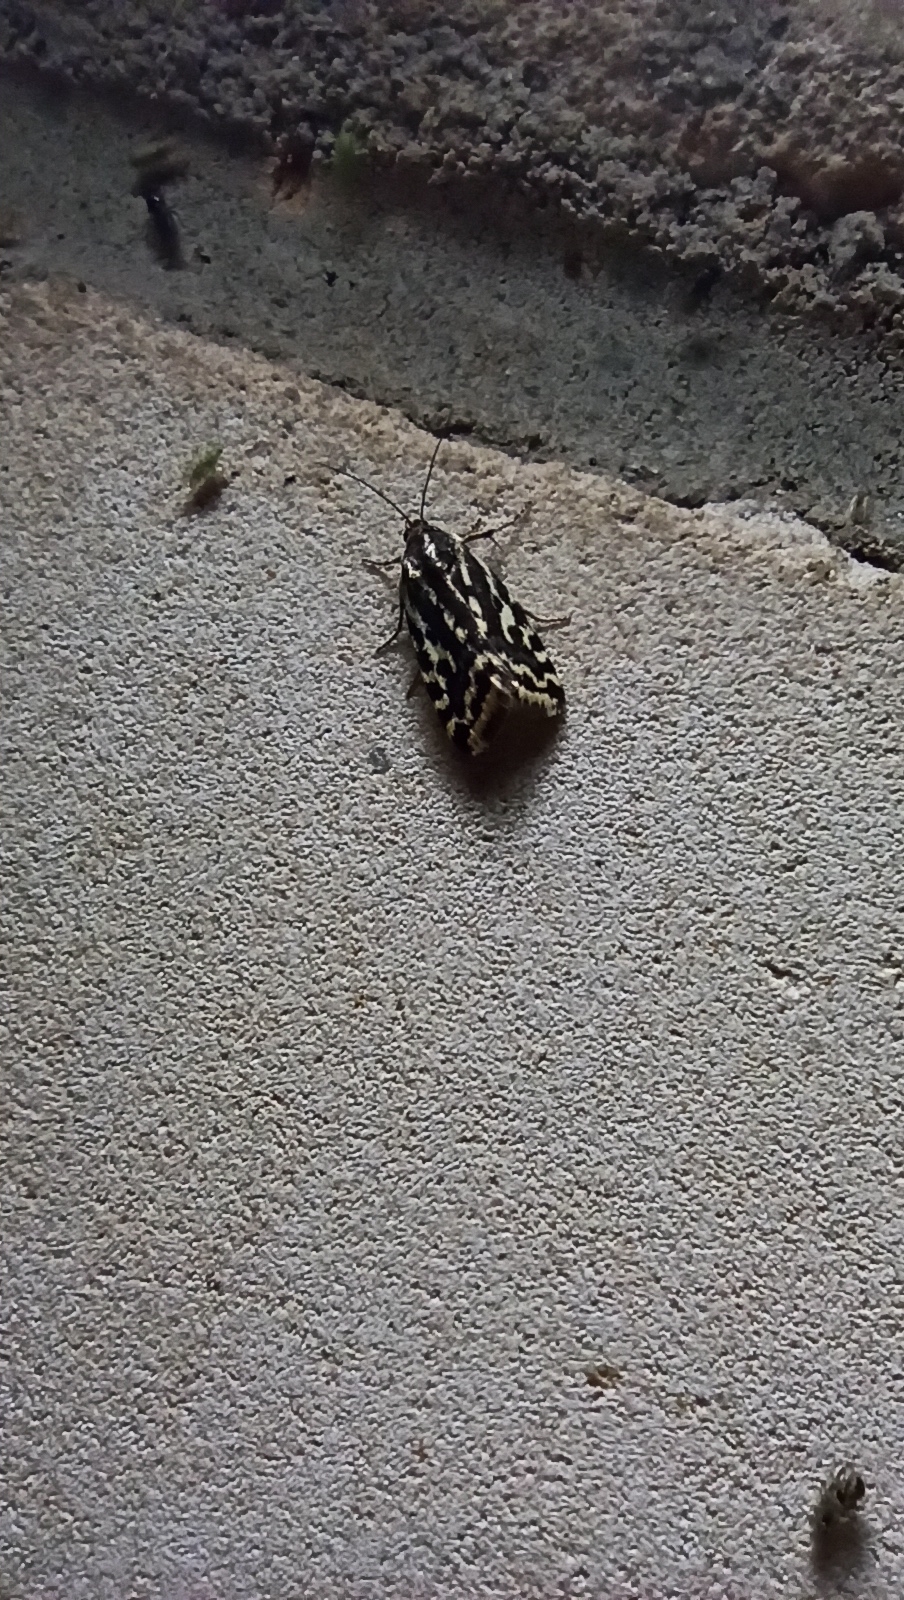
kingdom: Animalia
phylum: Arthropoda
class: Insecta
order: Lepidoptera
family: Noctuidae
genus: Acontia
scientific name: Acontia trabealis
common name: Spotted sulphur
